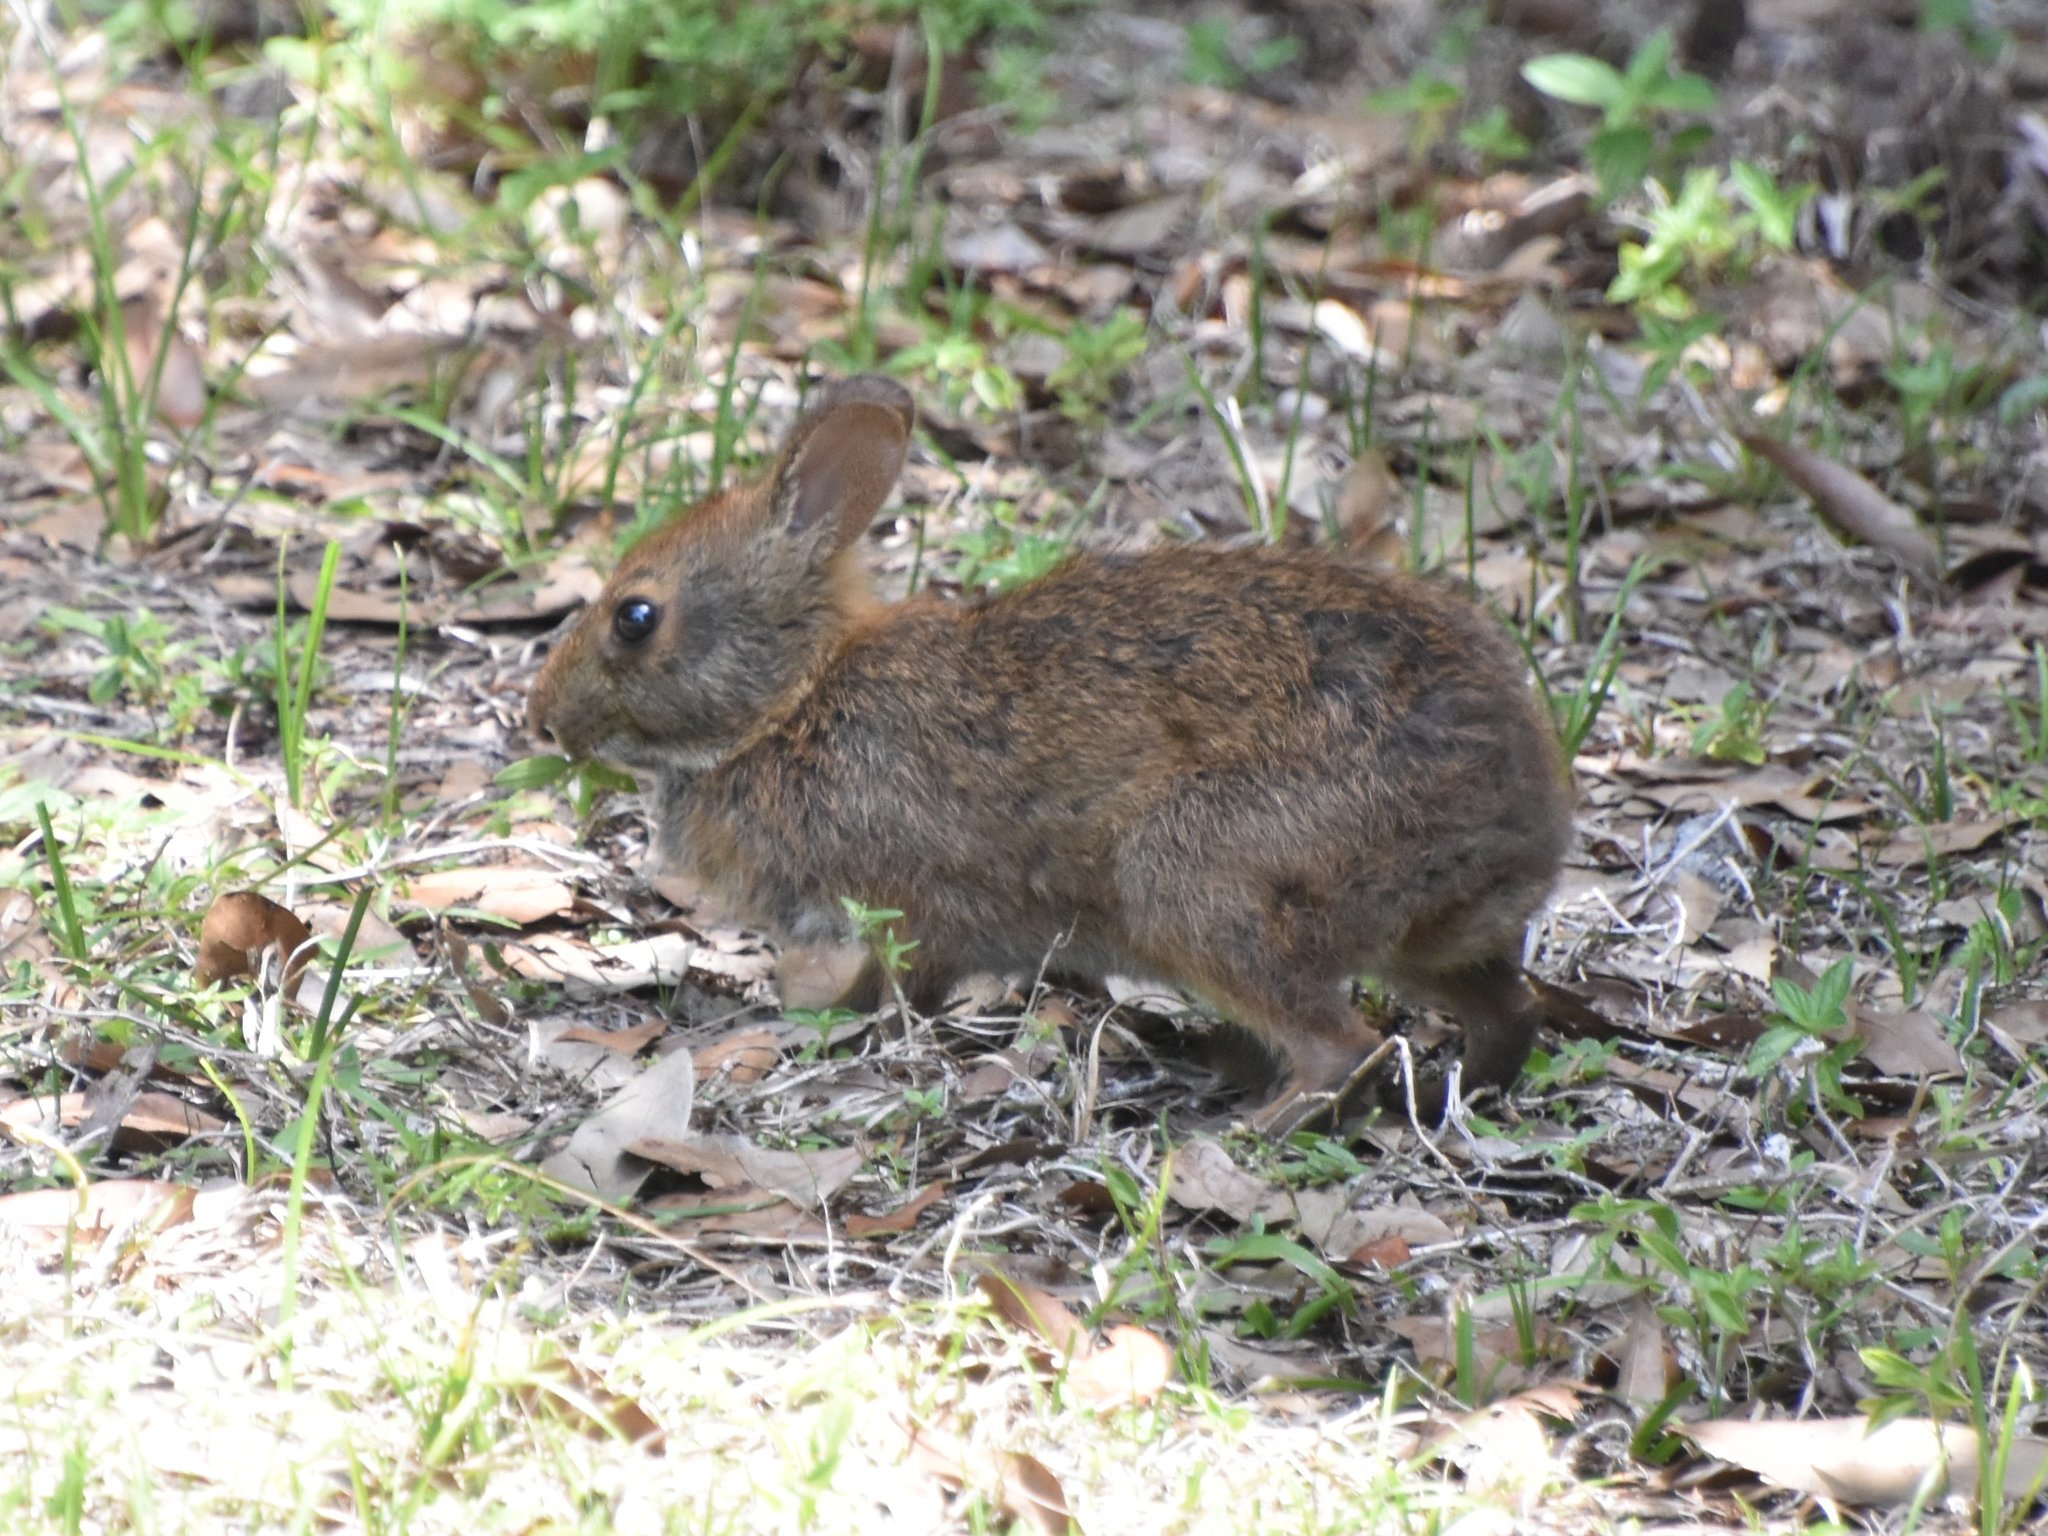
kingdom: Animalia
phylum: Chordata
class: Mammalia
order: Lagomorpha
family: Leporidae
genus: Sylvilagus
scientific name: Sylvilagus palustris
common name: Marsh rabbit
